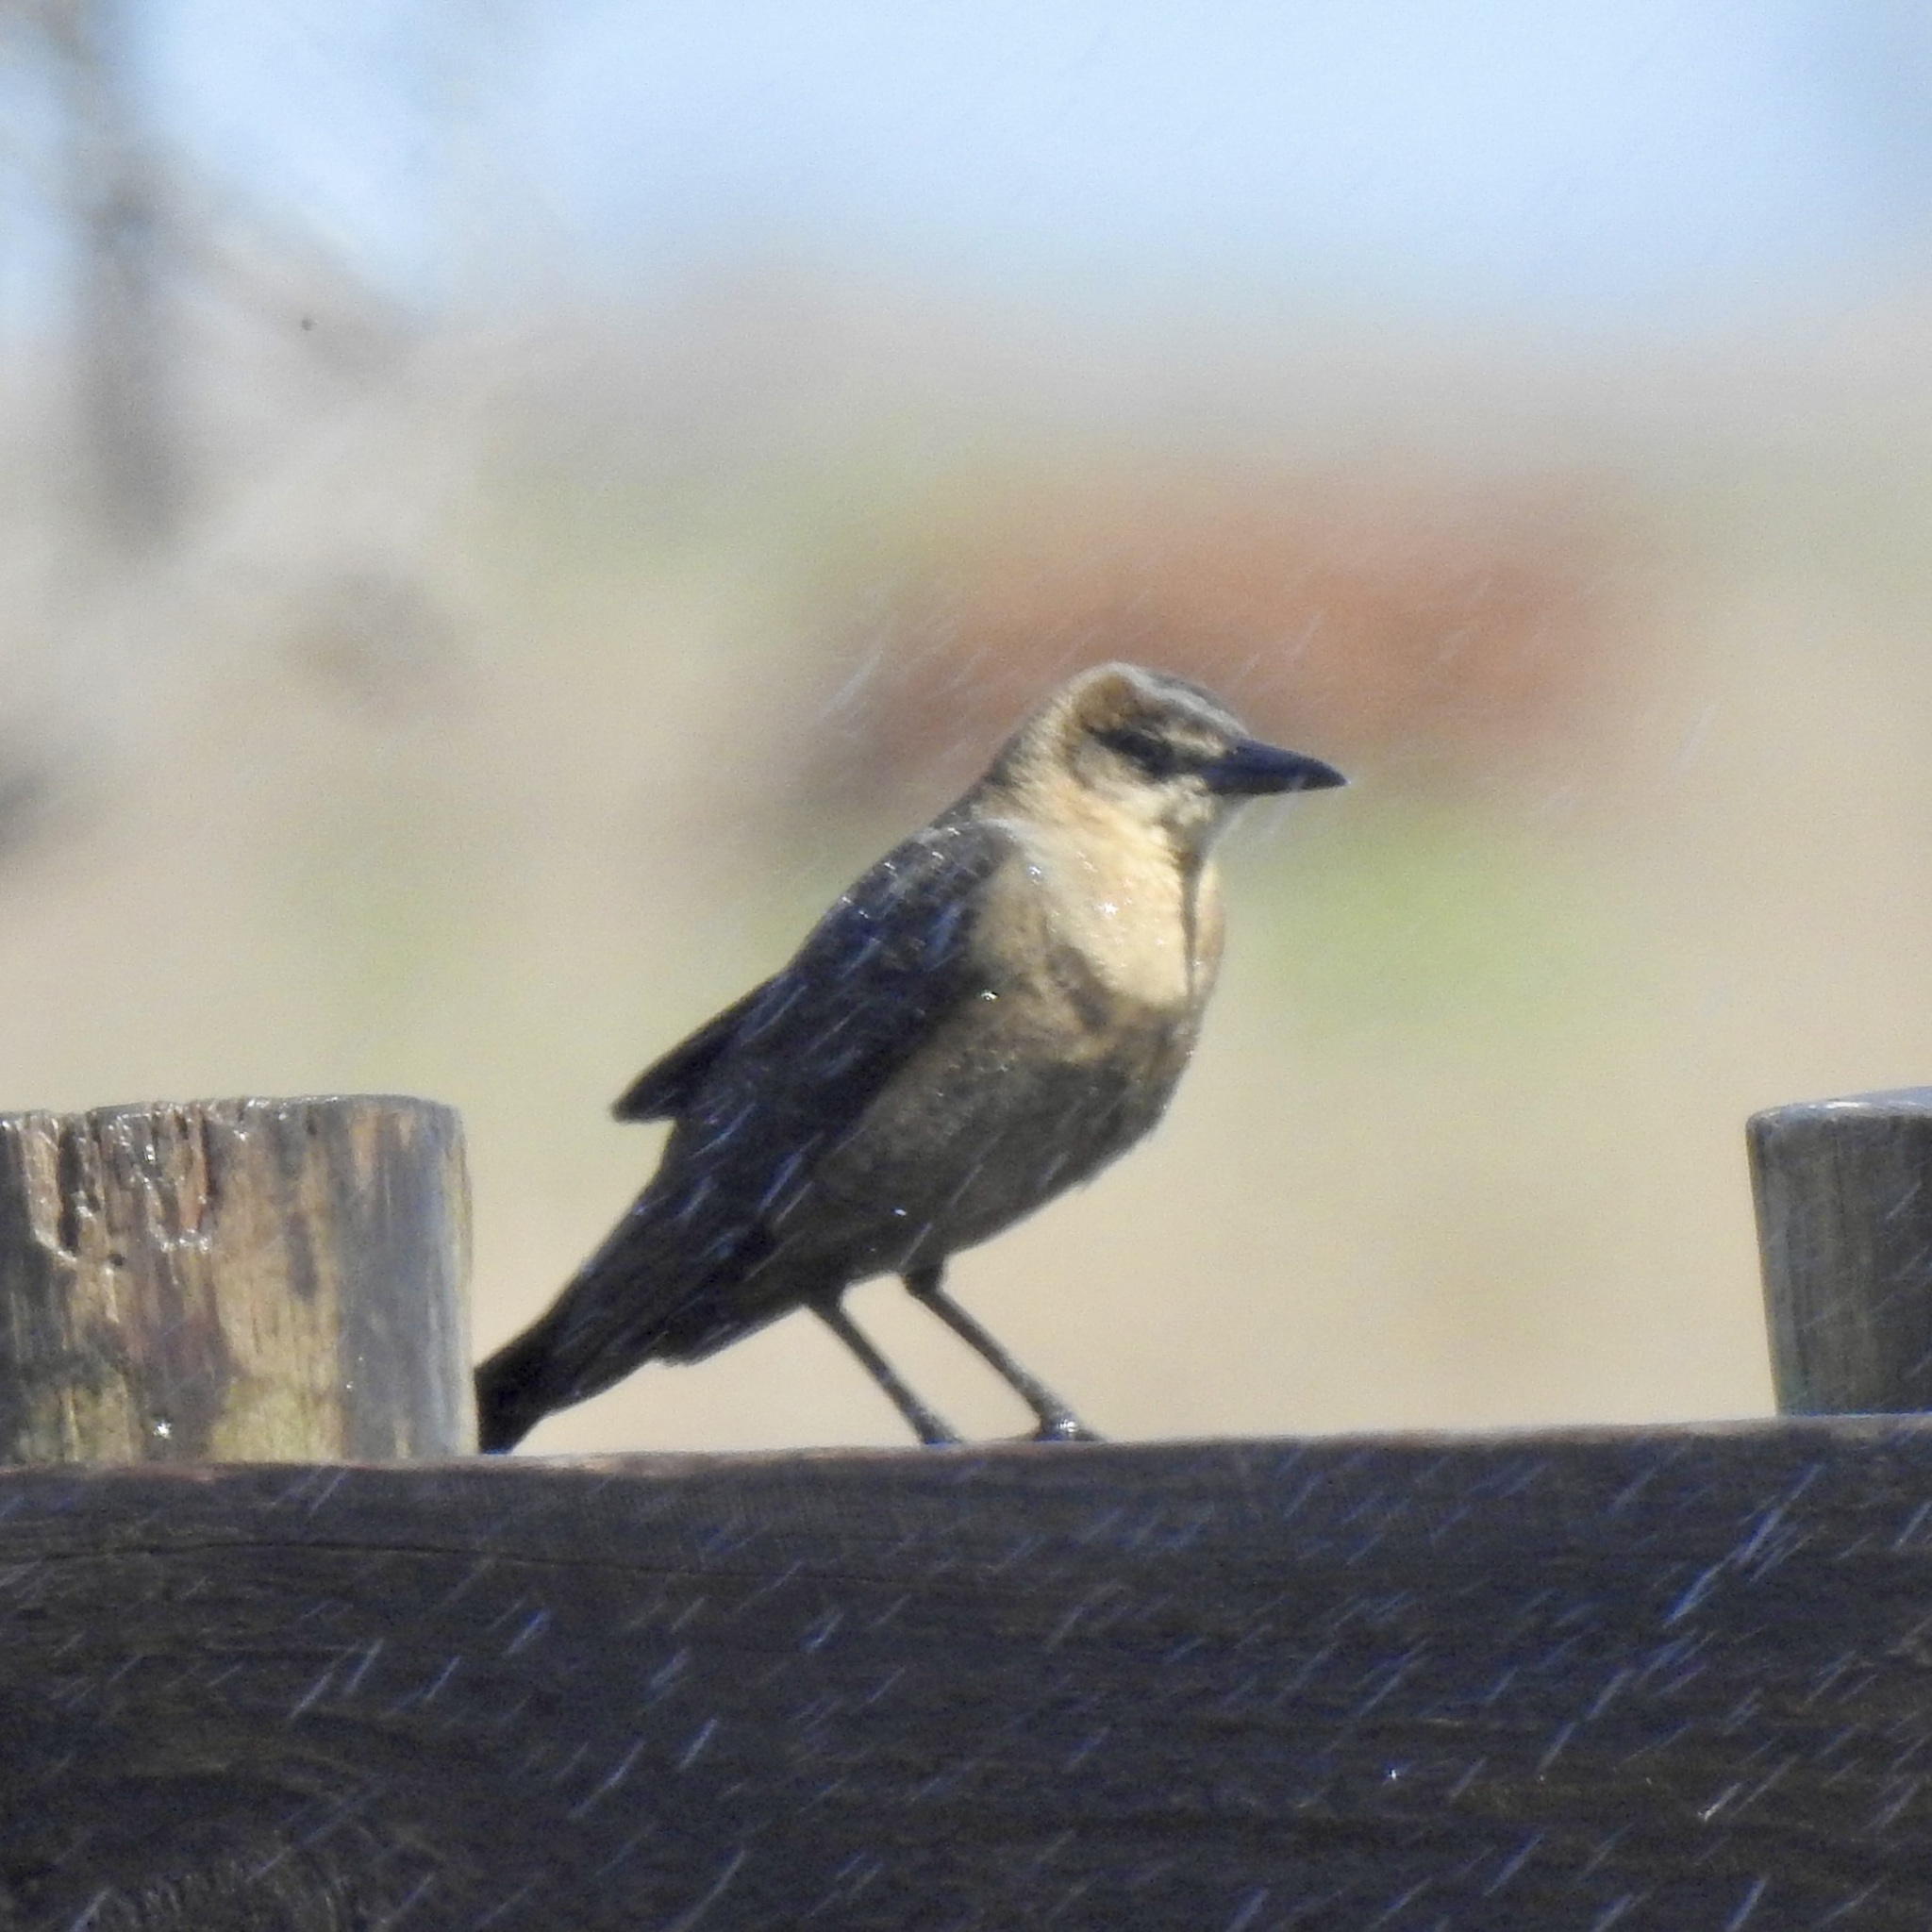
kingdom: Animalia
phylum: Chordata
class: Aves
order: Passeriformes
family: Icteridae
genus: Quiscalus
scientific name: Quiscalus mexicanus
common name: Great-tailed grackle
